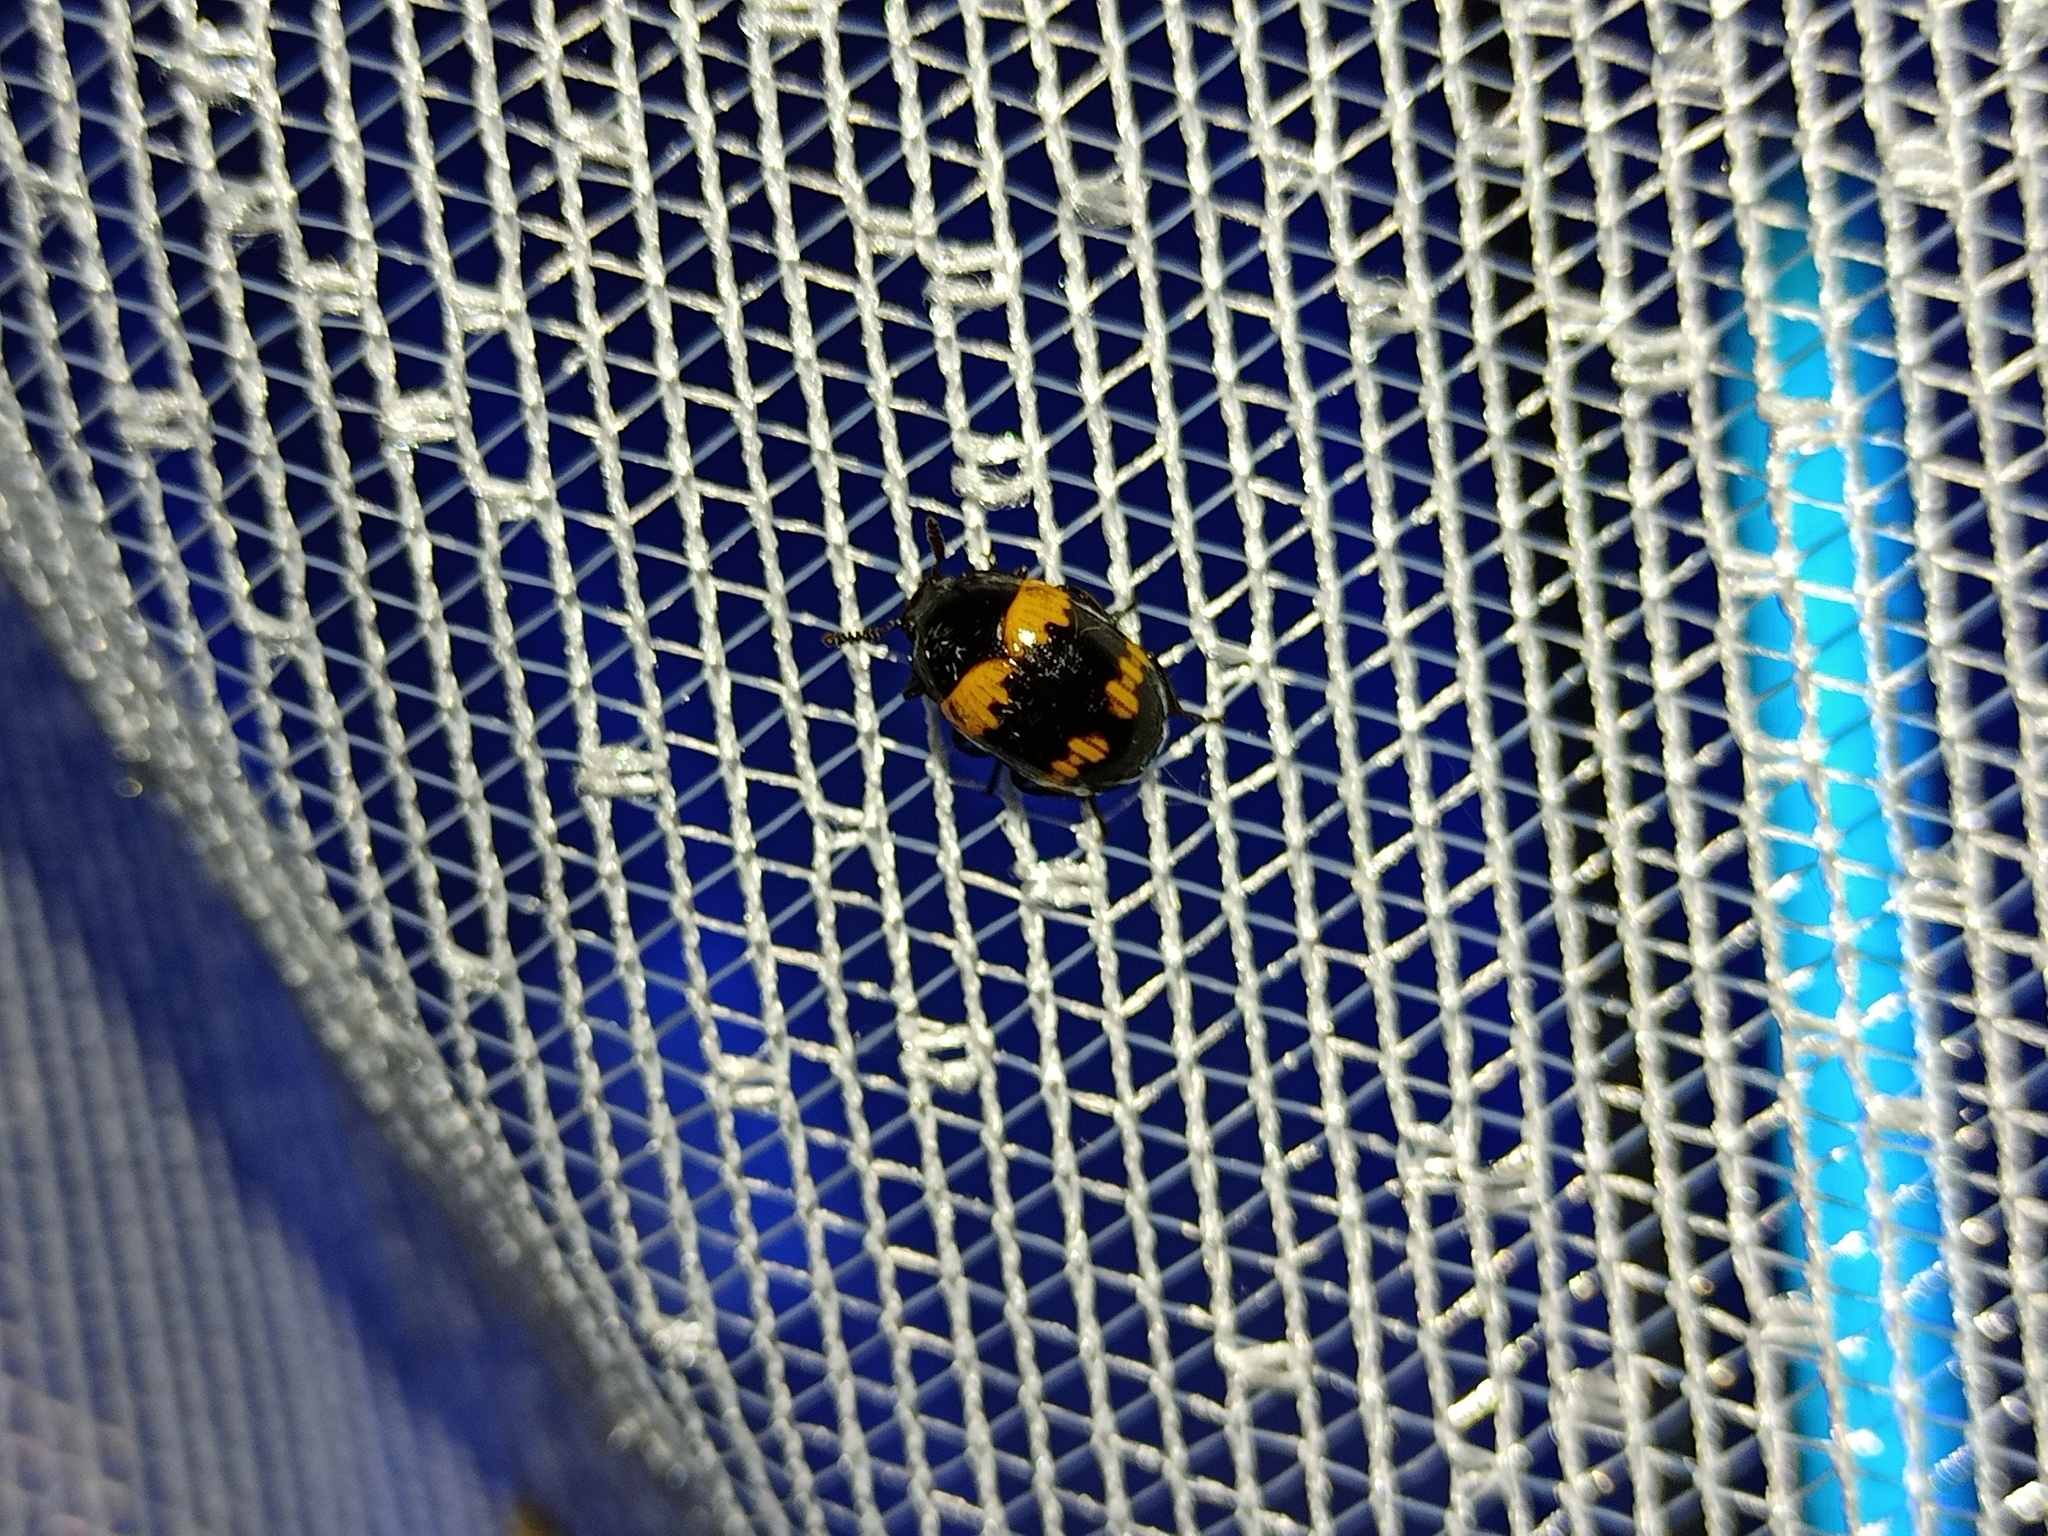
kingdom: Animalia
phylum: Arthropoda
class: Insecta
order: Coleoptera
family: Tenebrionidae
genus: Diaperis
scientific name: Diaperis boleti
